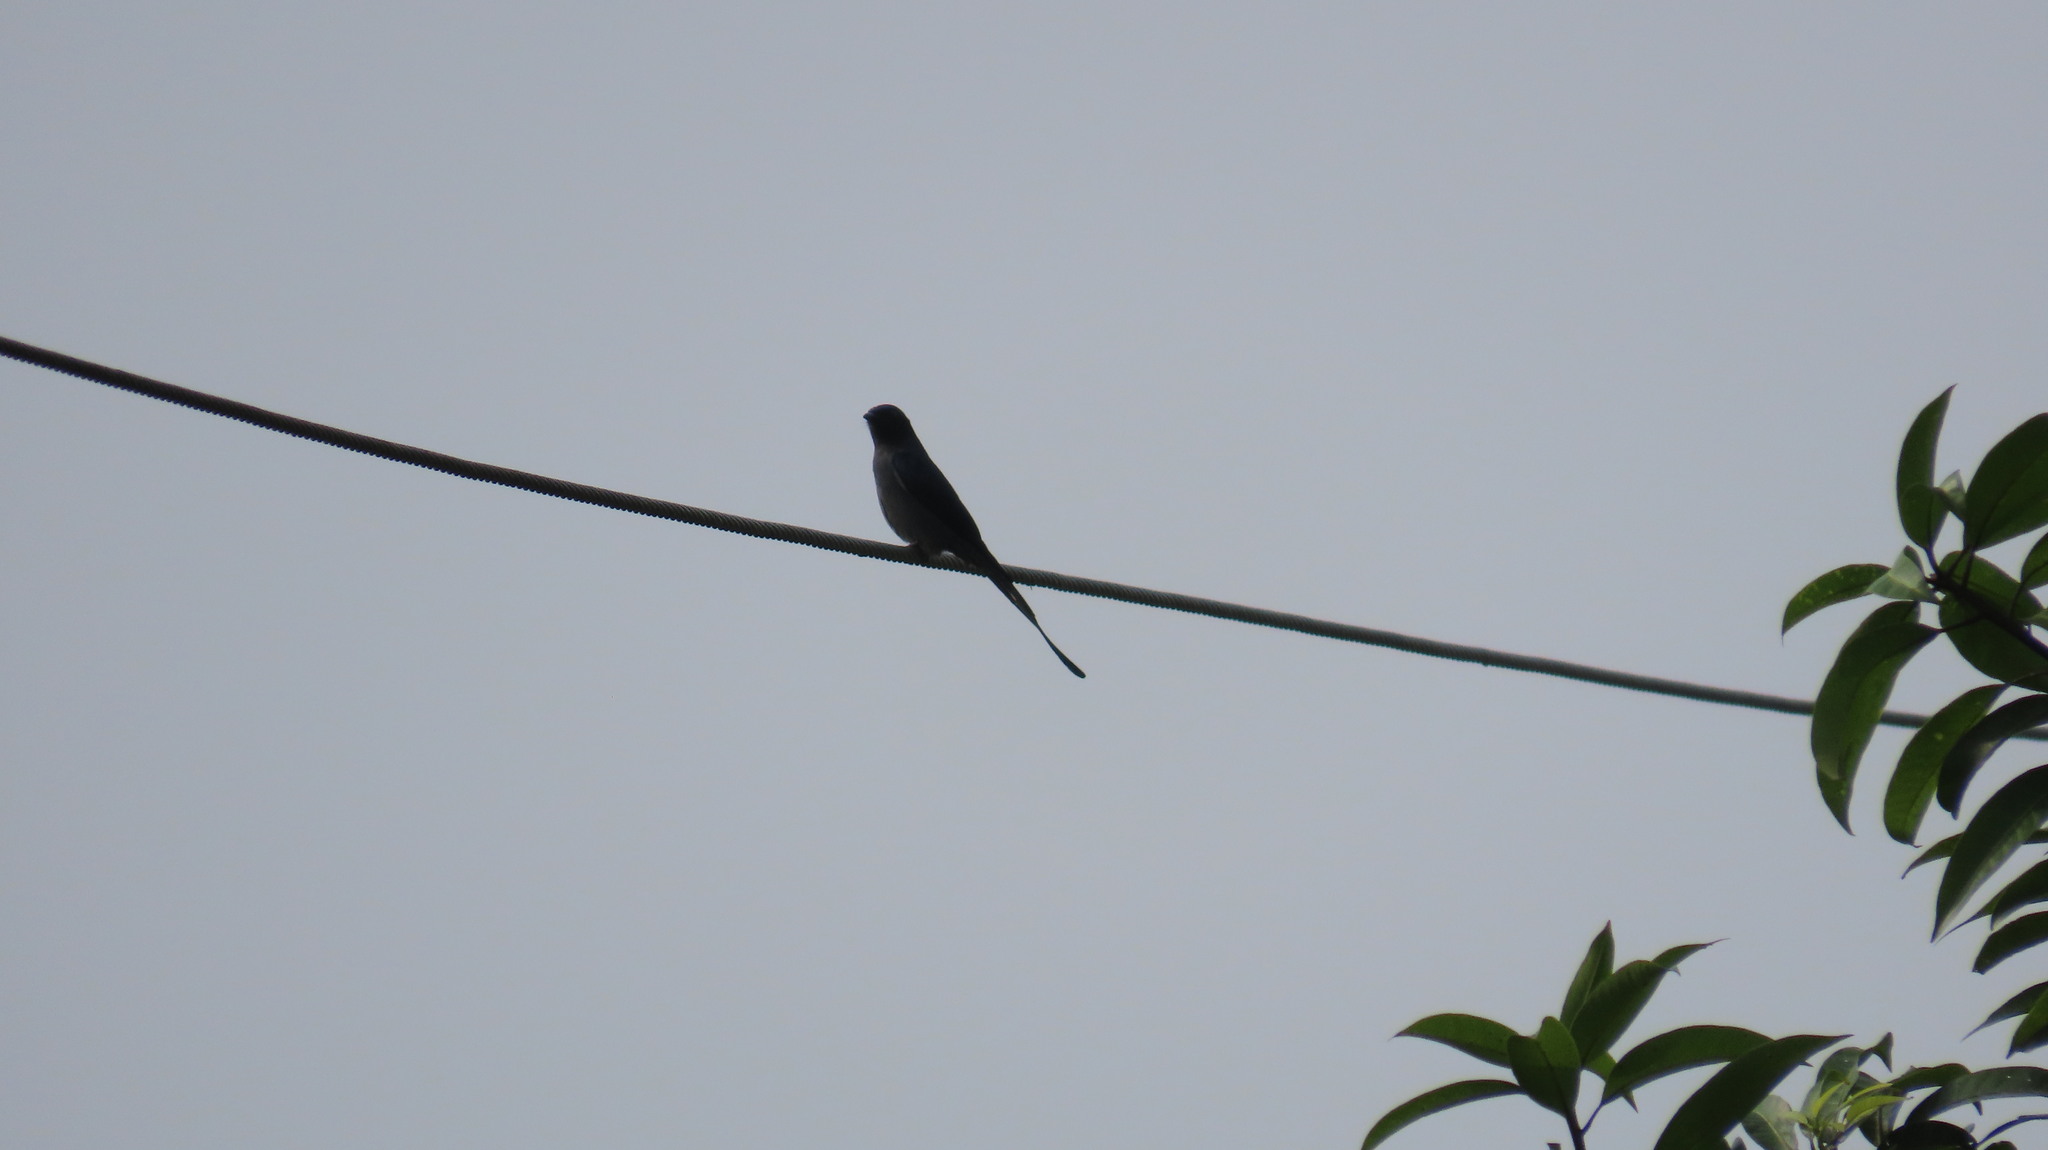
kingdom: Animalia
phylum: Chordata
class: Aves
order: Passeriformes
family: Sturnidae
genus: Acridotheres
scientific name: Acridotheres tristis
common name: Common myna
